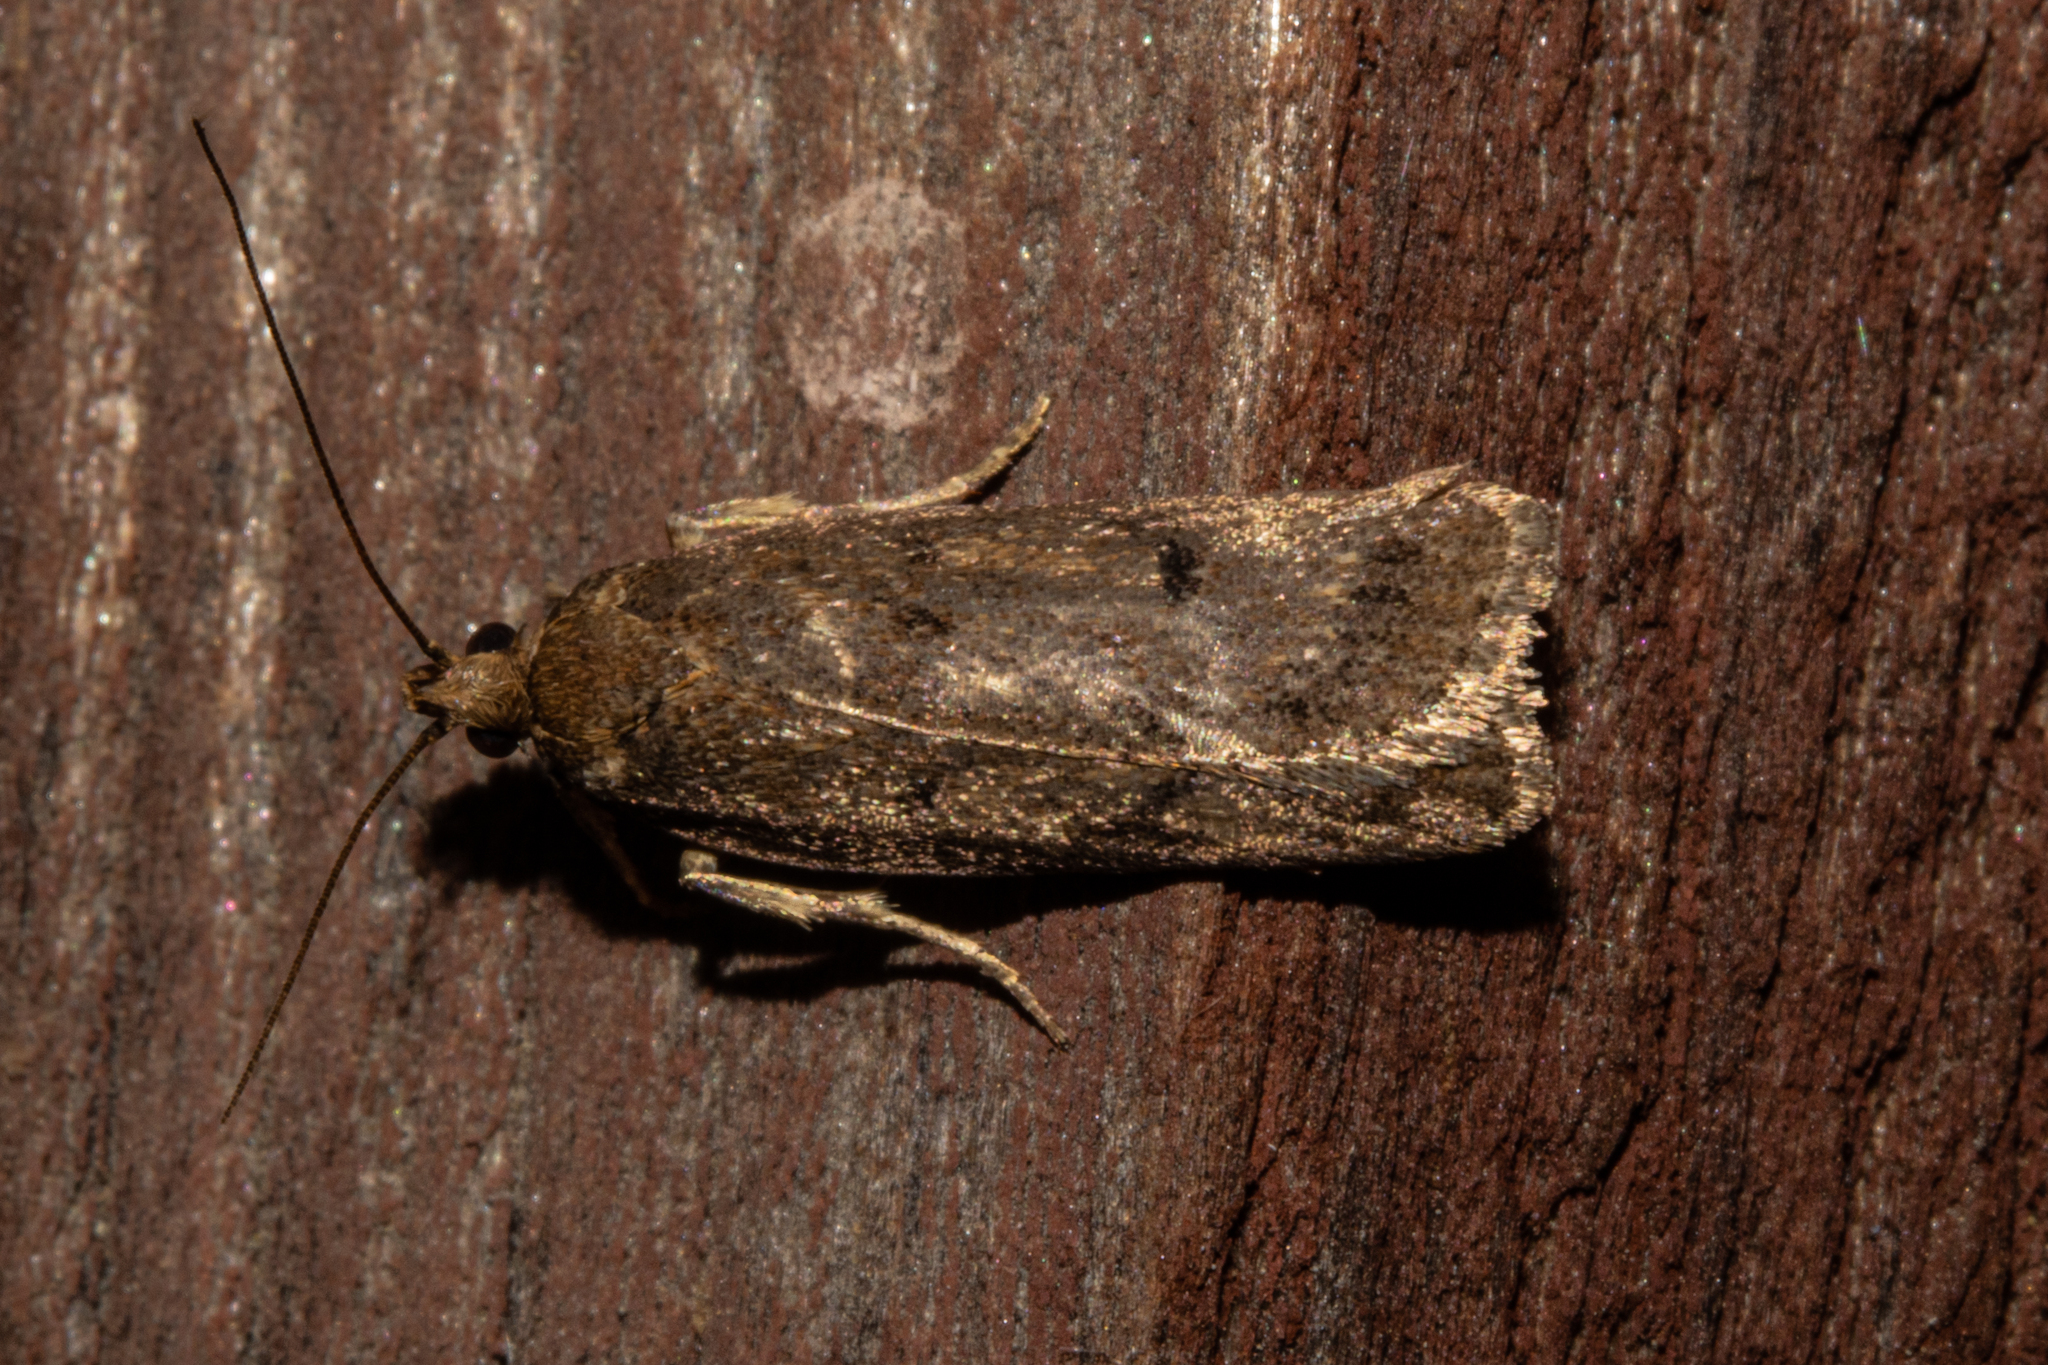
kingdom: Animalia
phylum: Arthropoda
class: Insecta
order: Lepidoptera
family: Depressariidae
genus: Phaeosaces
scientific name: Phaeosaces apocrypta
